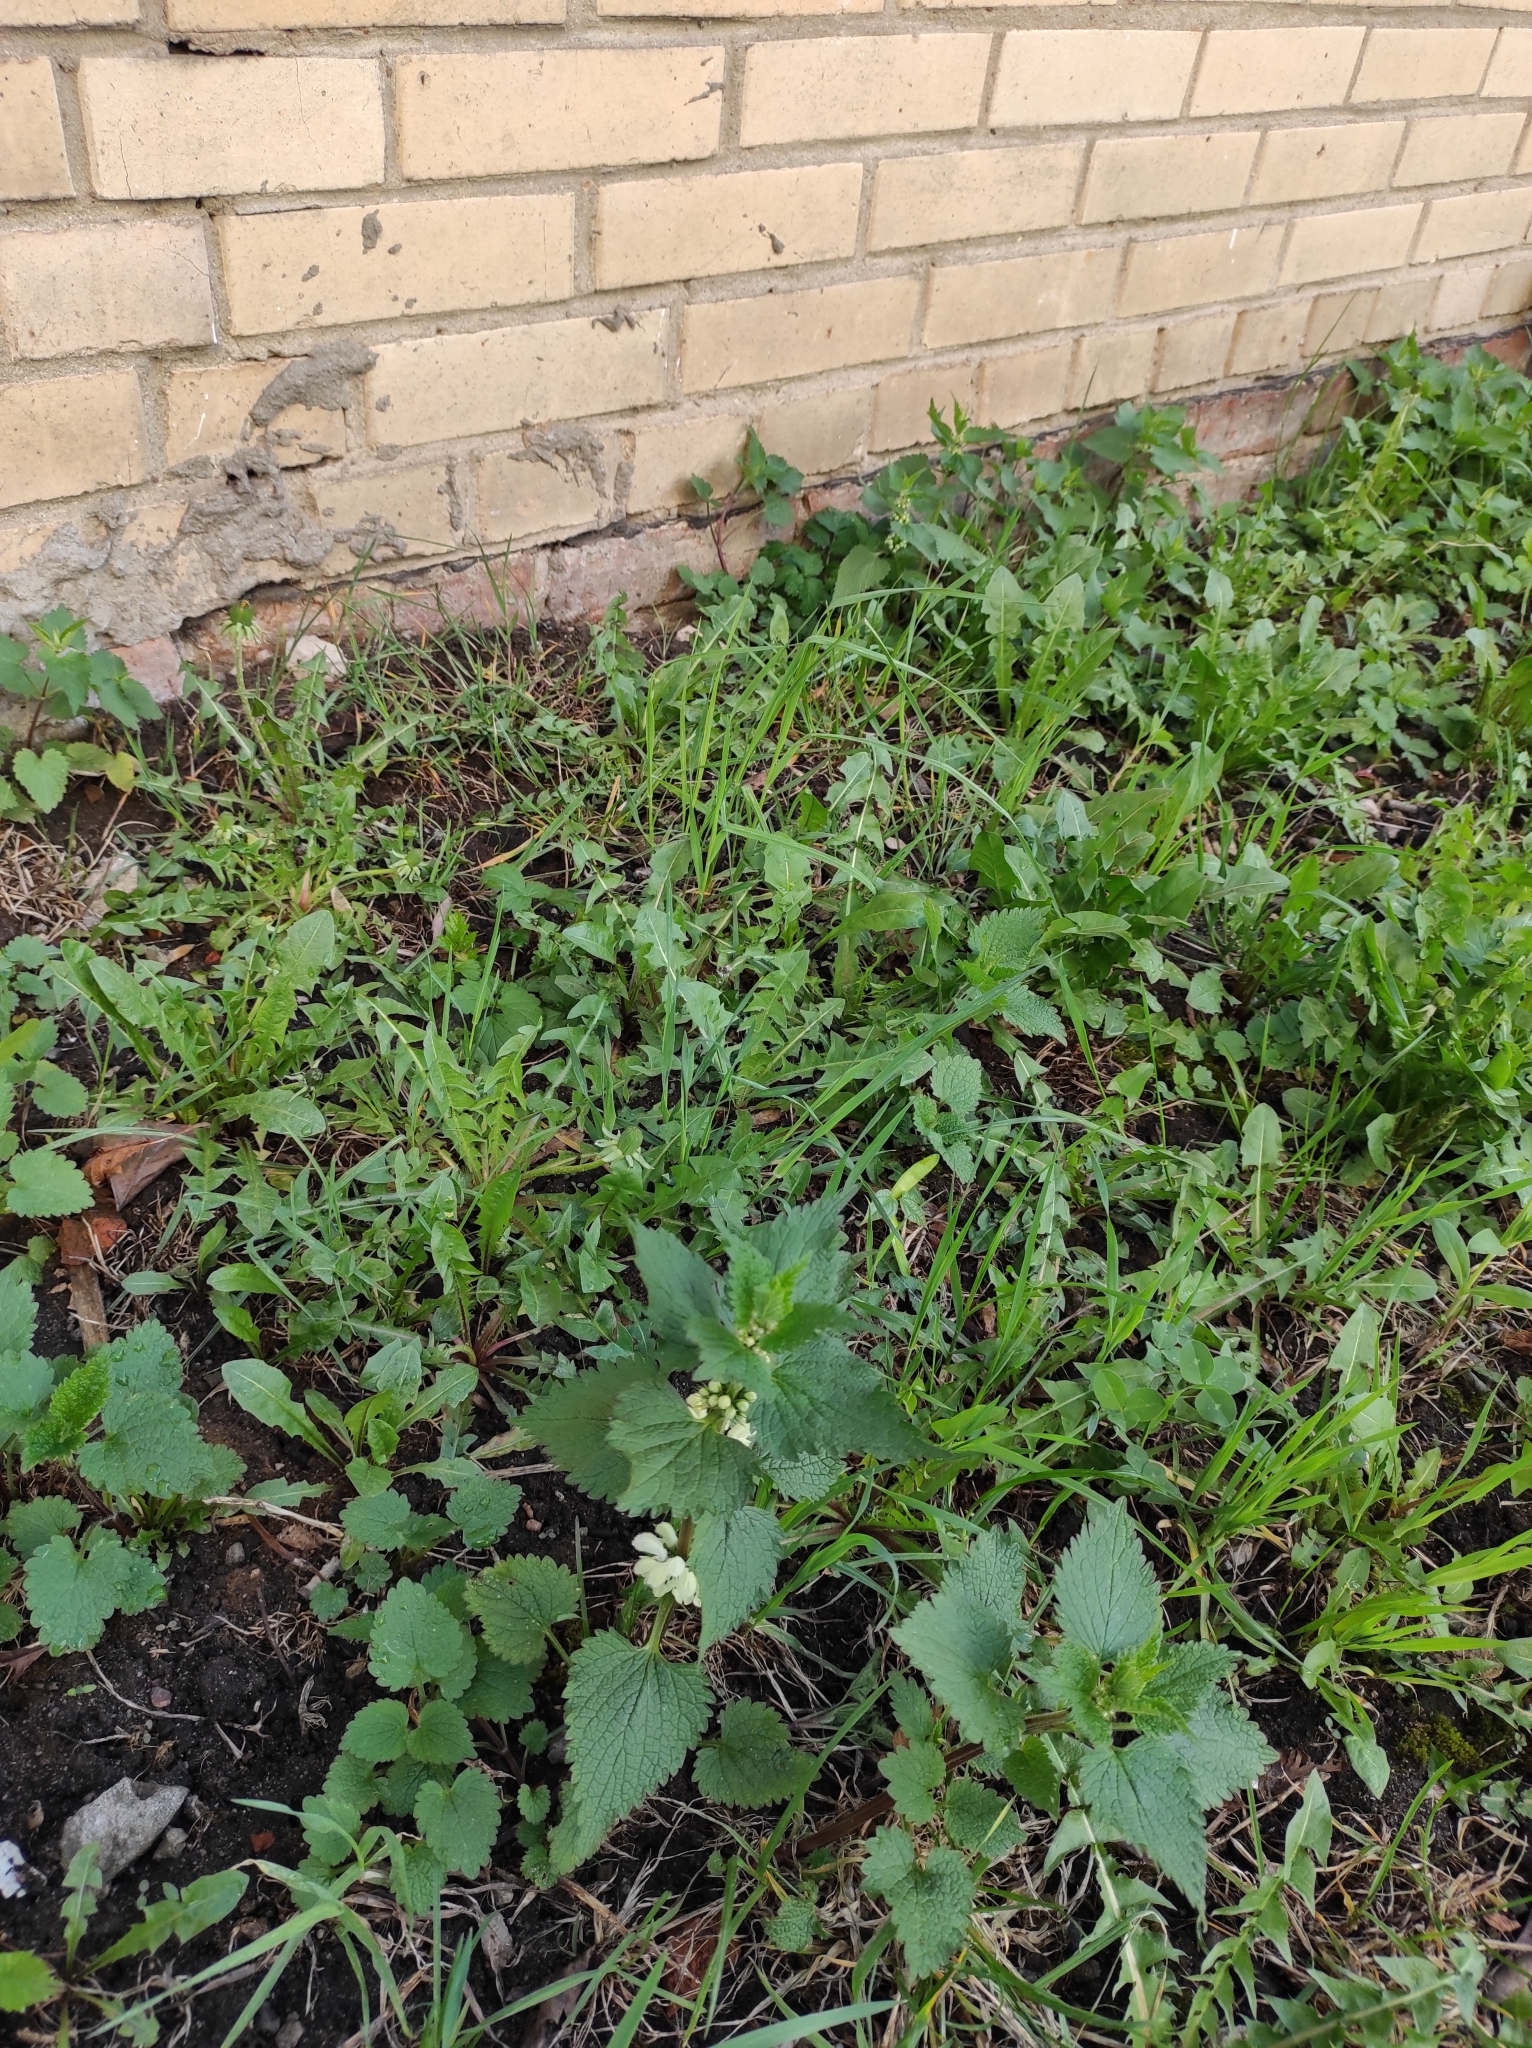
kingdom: Plantae
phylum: Tracheophyta
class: Magnoliopsida
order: Lamiales
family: Lamiaceae
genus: Lamium
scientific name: Lamium album
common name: White dead-nettle
